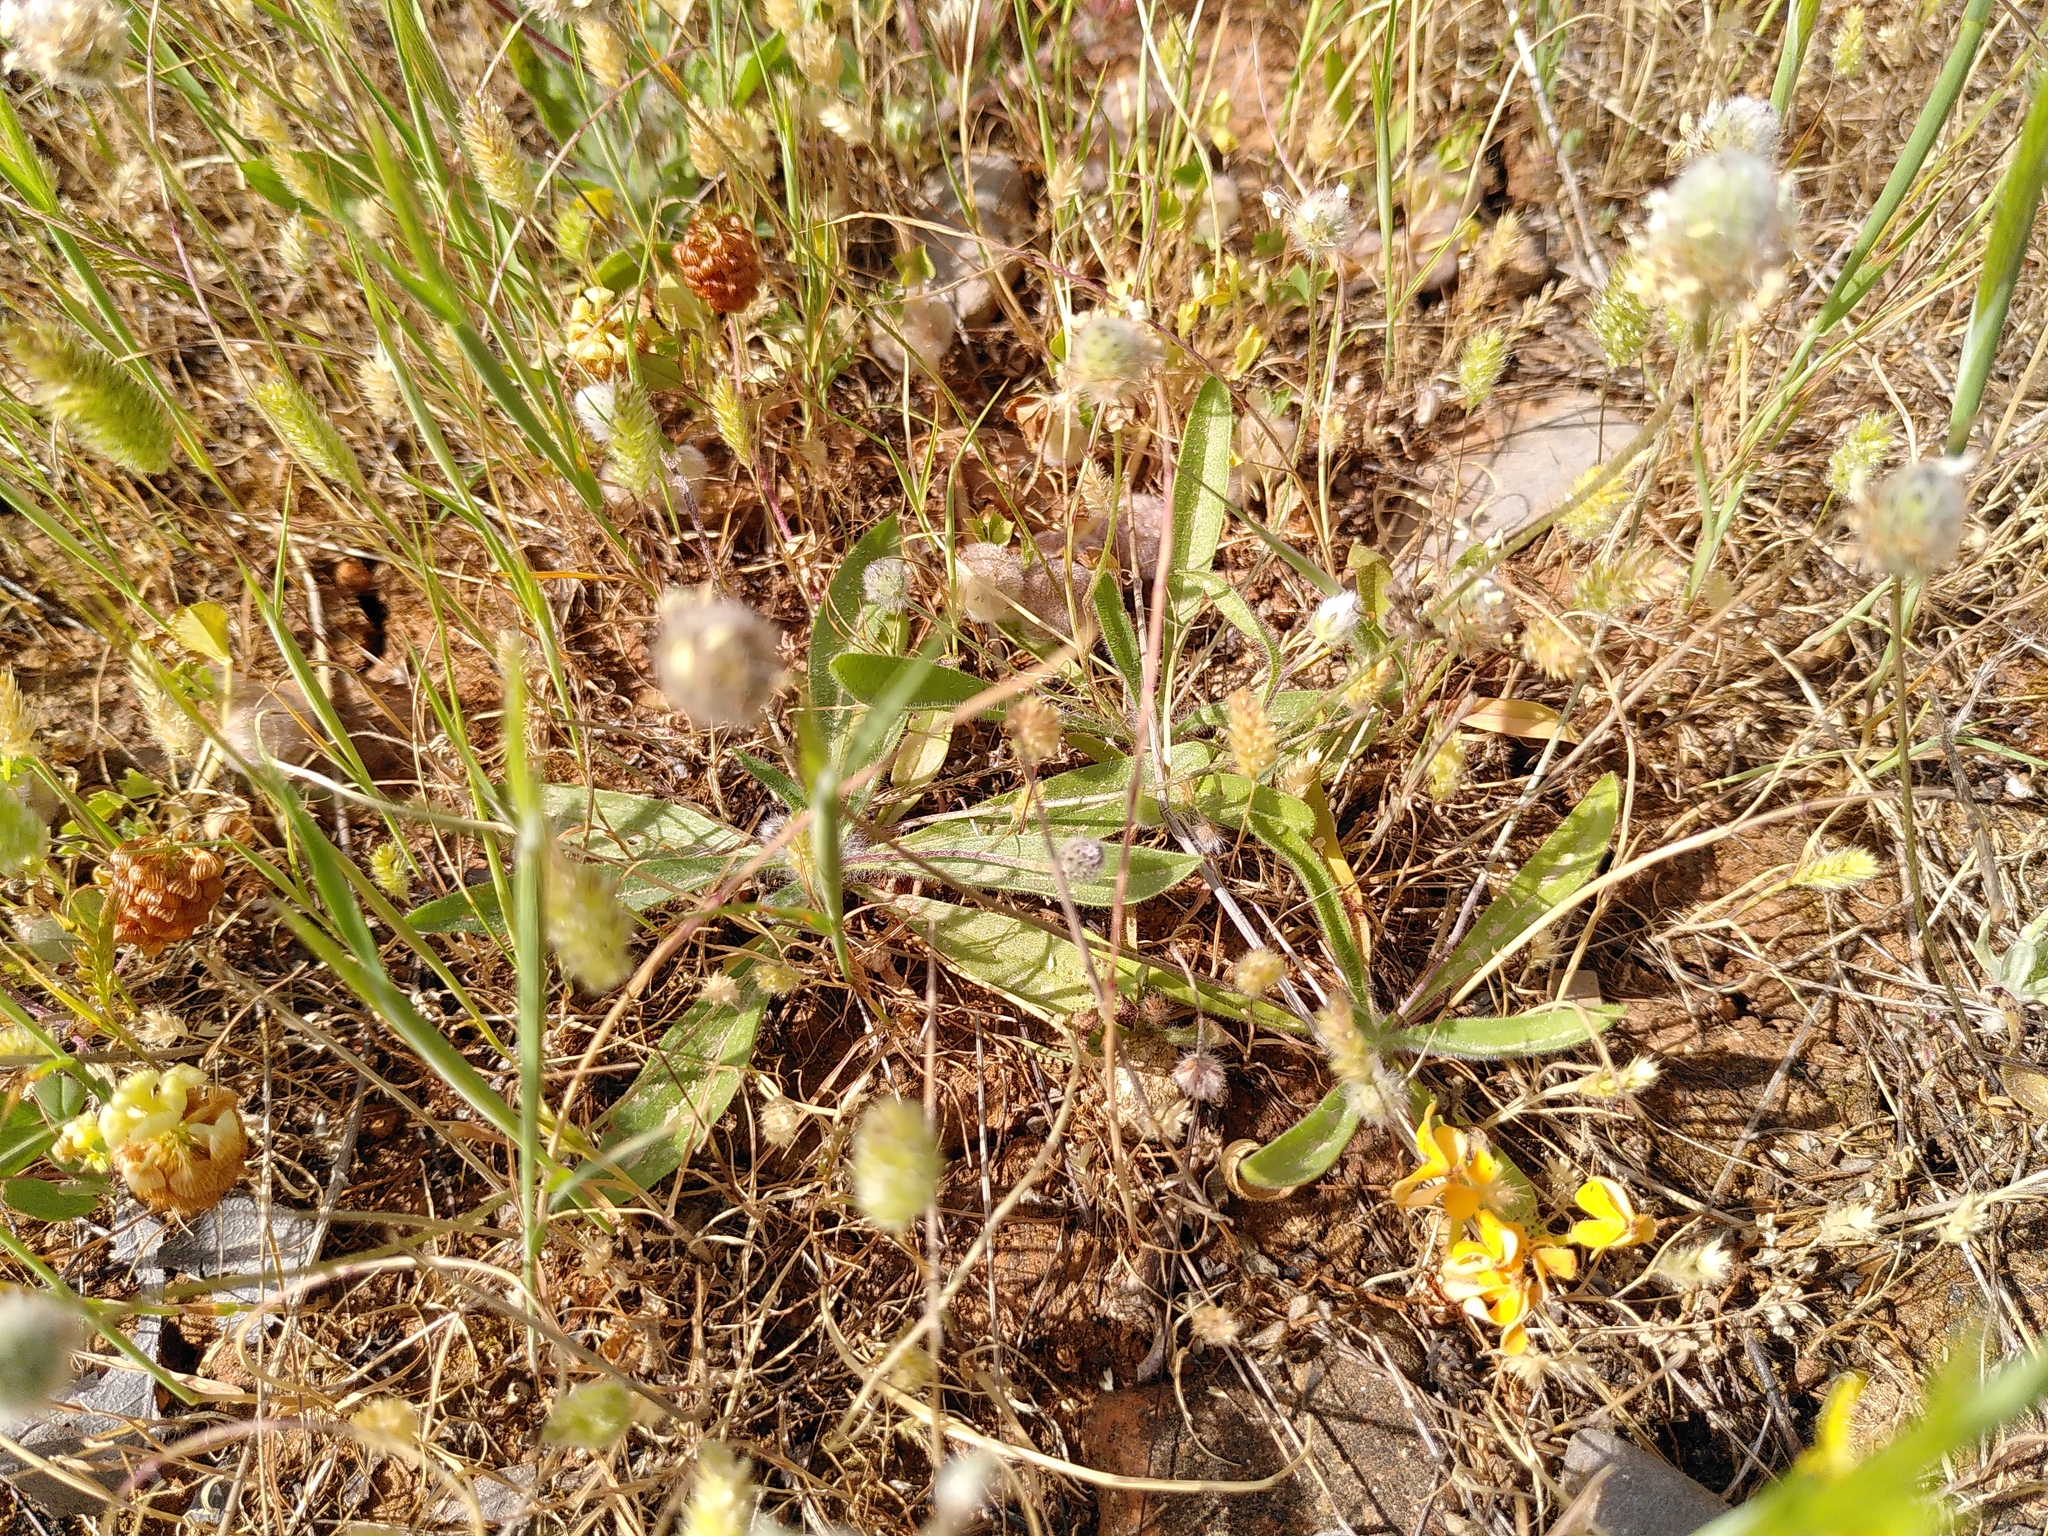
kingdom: Plantae
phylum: Tracheophyta
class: Magnoliopsida
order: Lamiales
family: Plantaginaceae
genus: Plantago
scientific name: Plantago lagopus
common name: Hare-foot plantain
